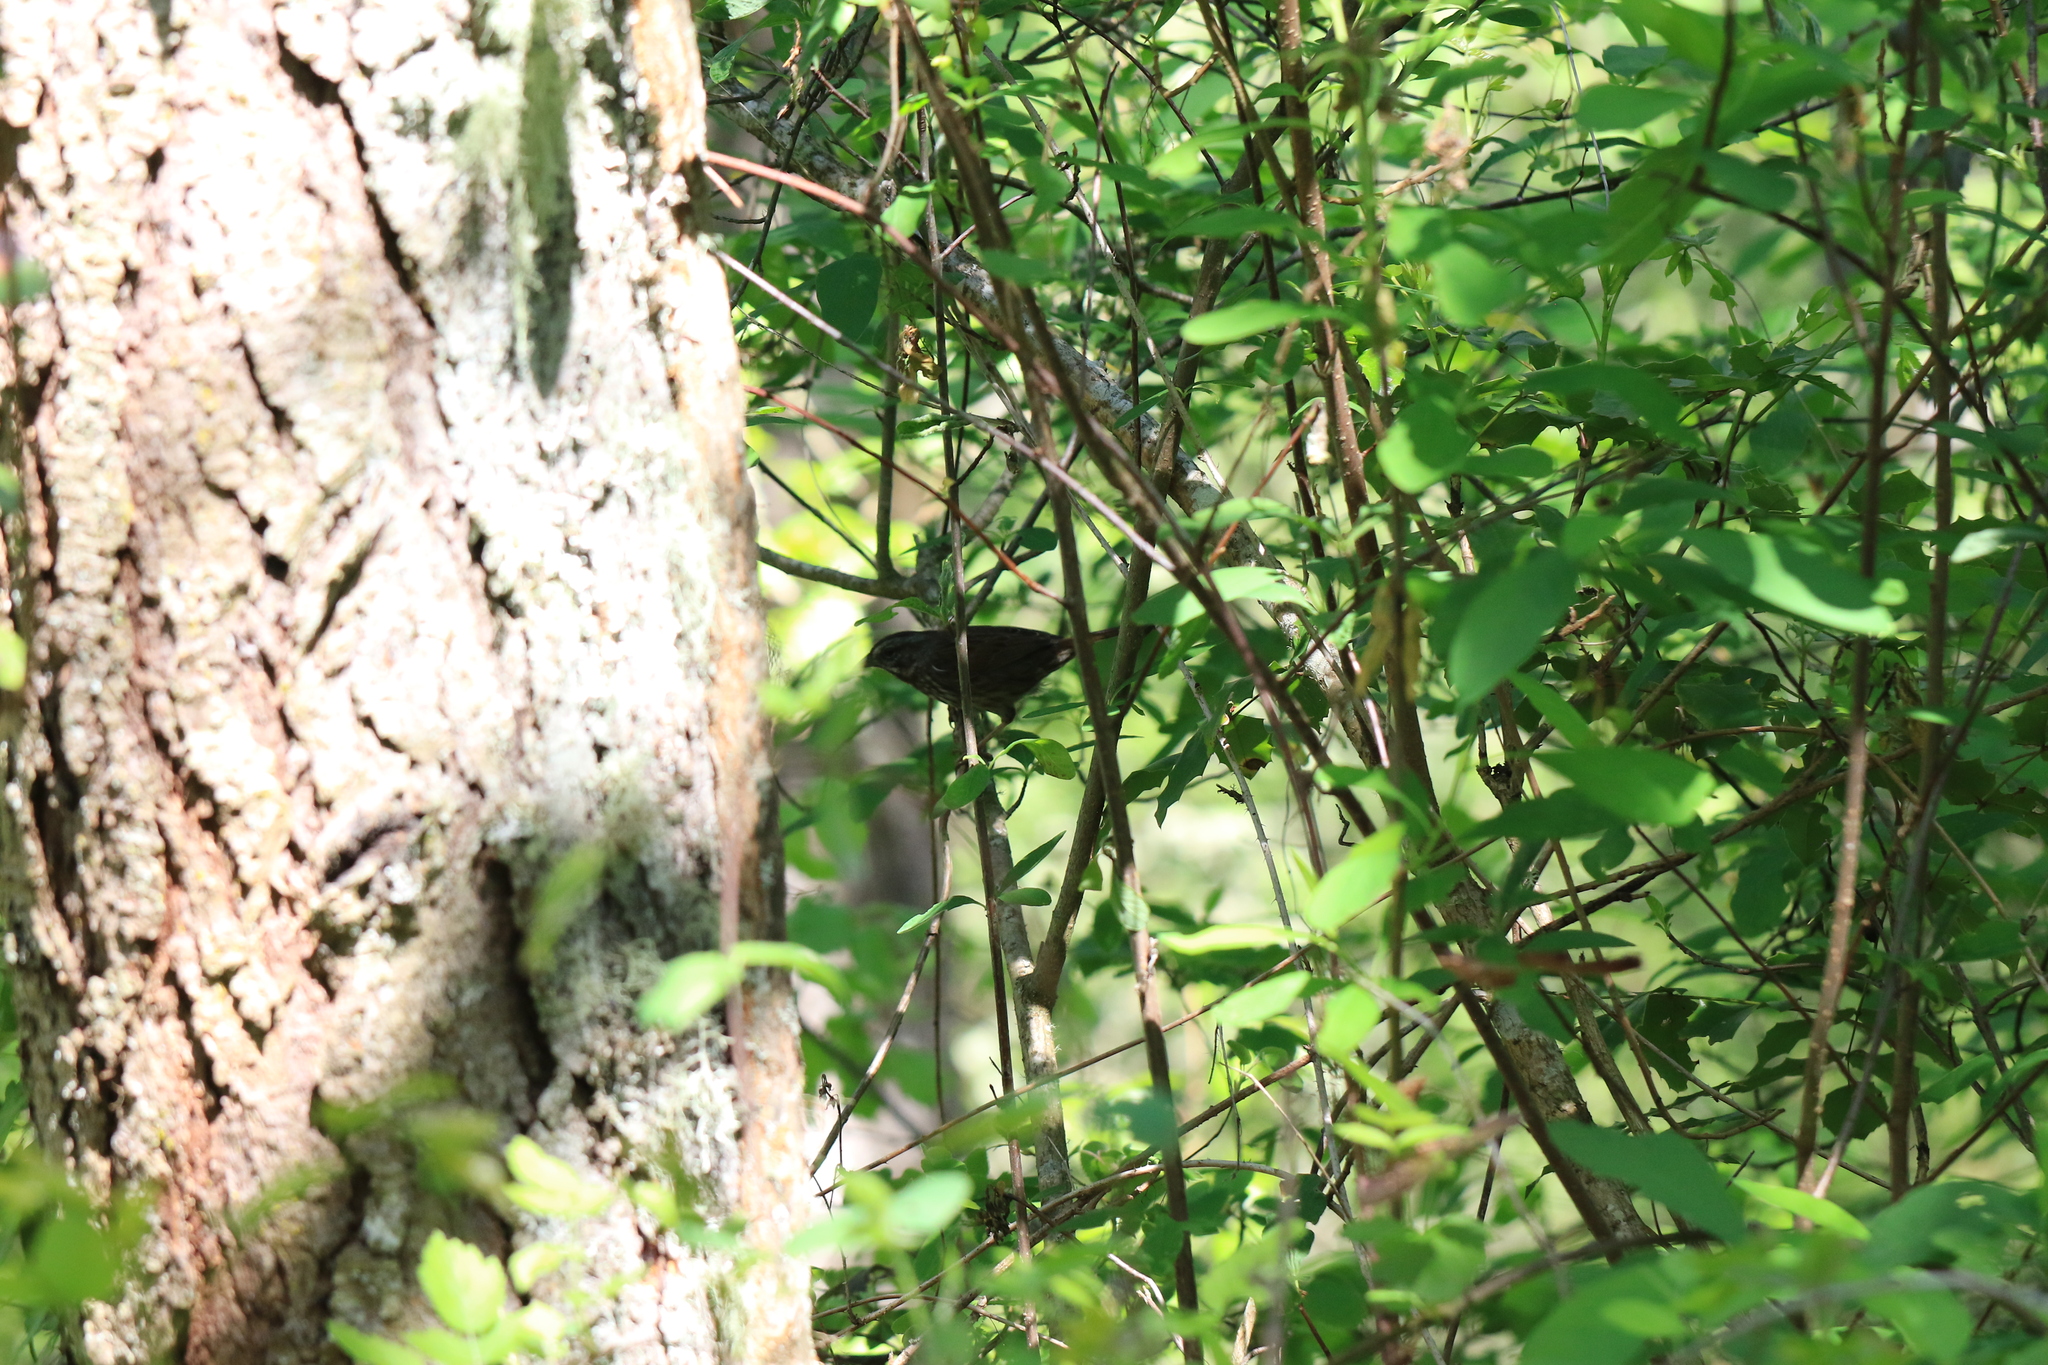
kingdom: Animalia
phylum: Chordata
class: Aves
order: Passeriformes
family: Passerellidae
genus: Melospiza
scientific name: Melospiza melodia
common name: Song sparrow
